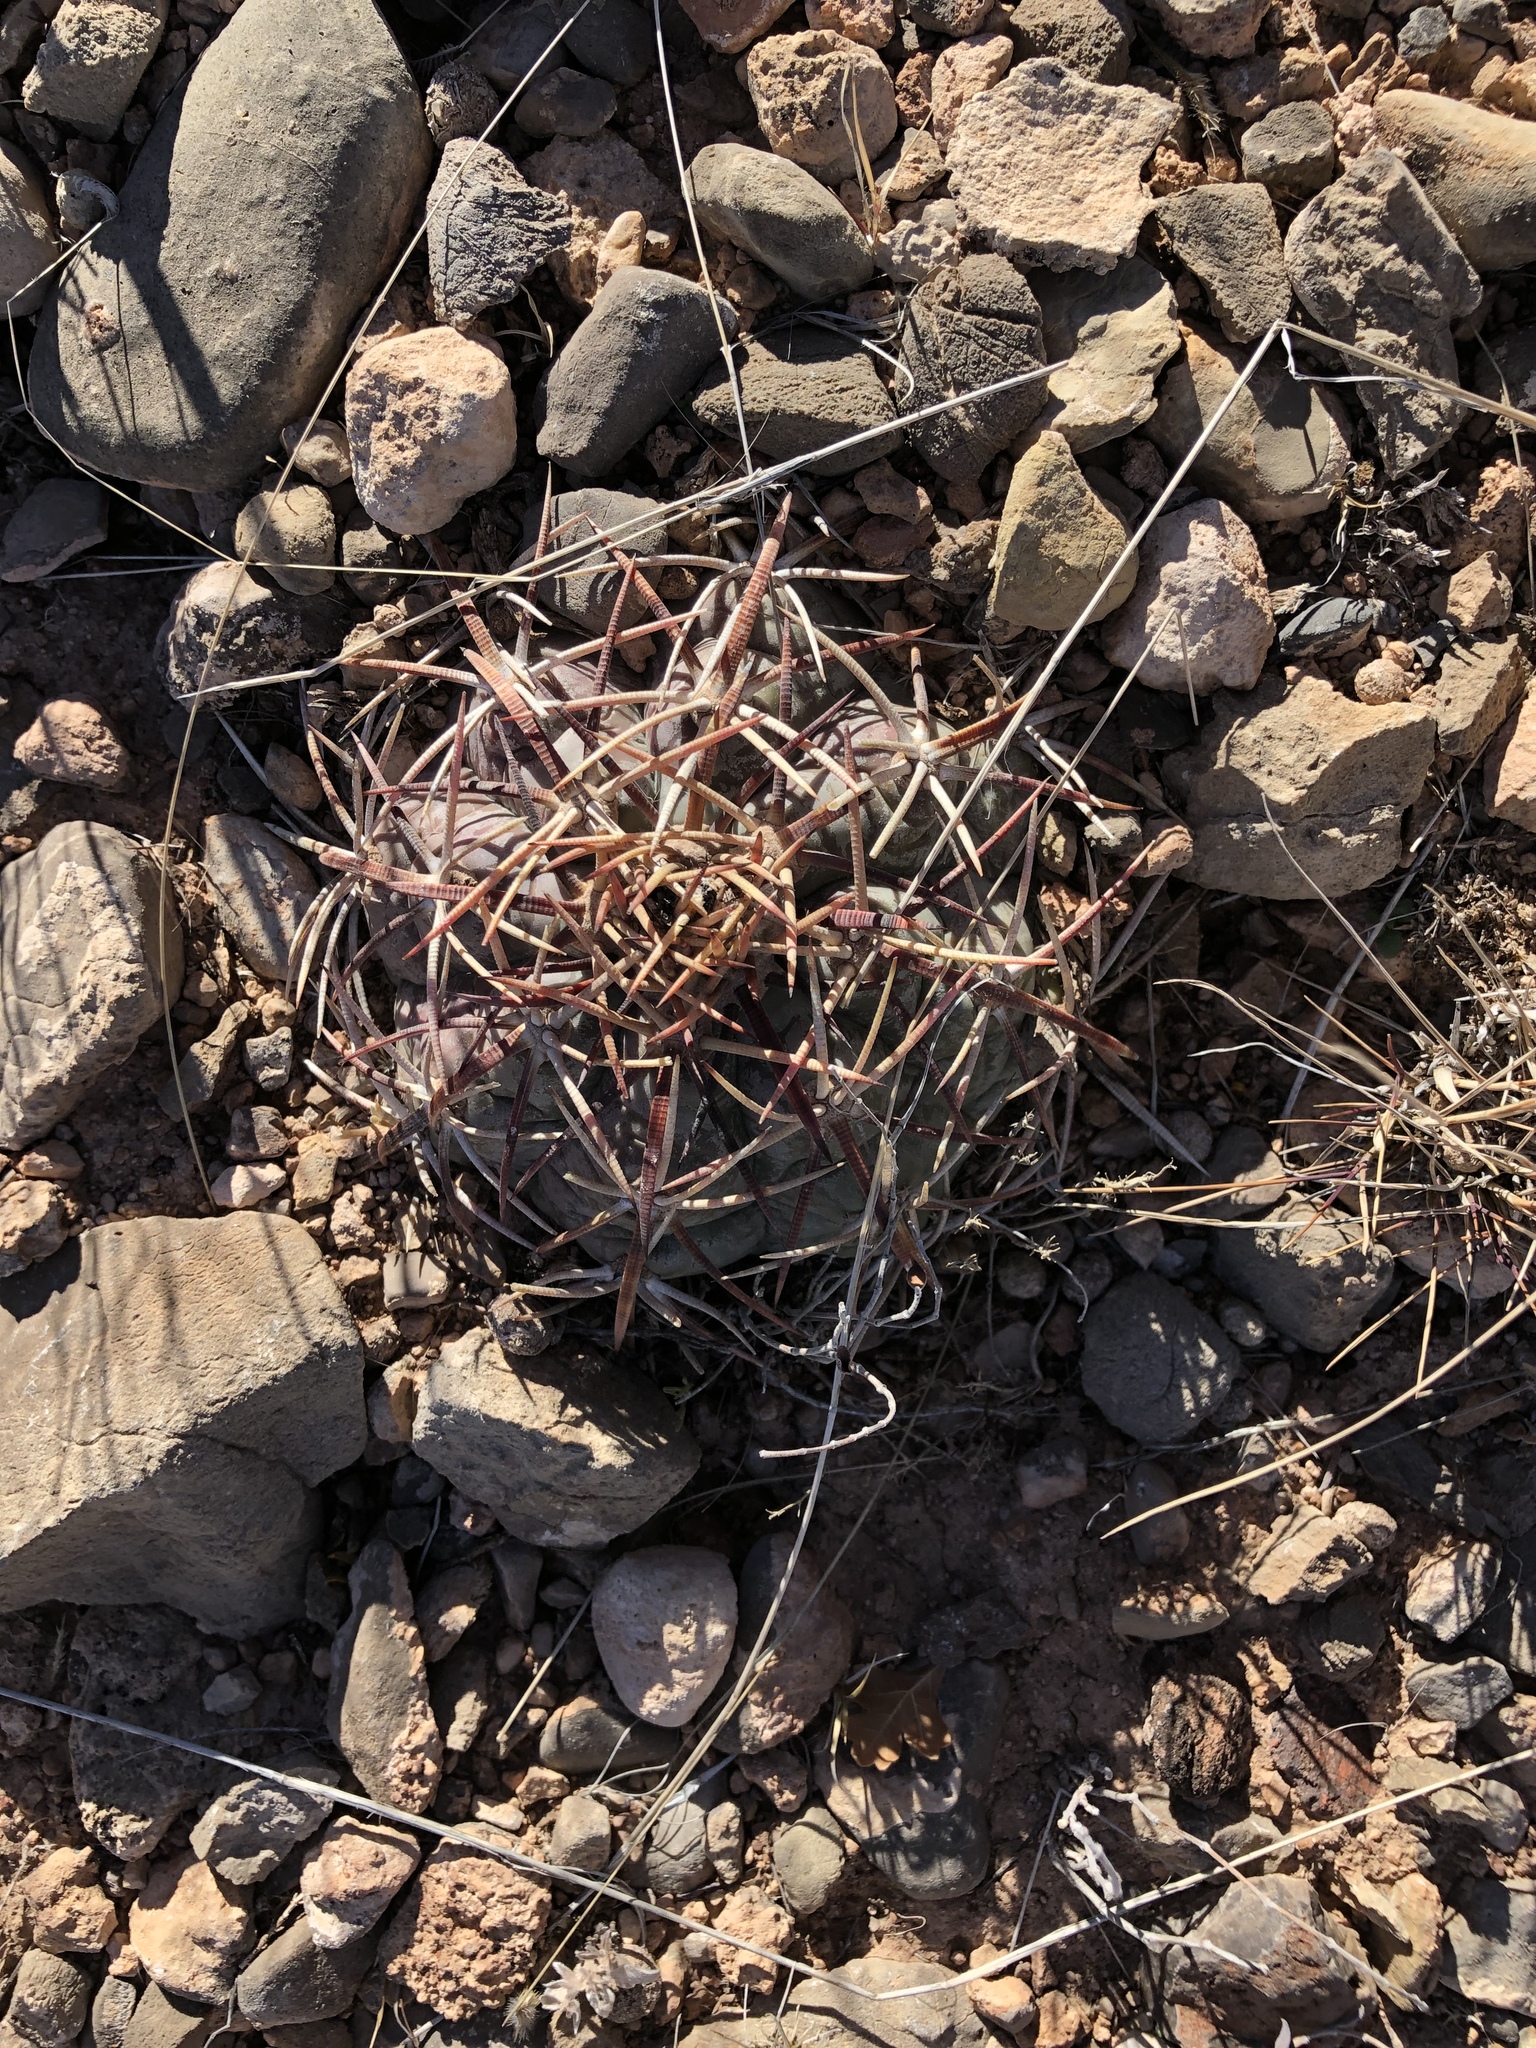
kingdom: Plantae
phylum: Tracheophyta
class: Magnoliopsida
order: Caryophyllales
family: Cactaceae
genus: Echinocactus
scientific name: Echinocactus horizonthalonius
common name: Devilshead
